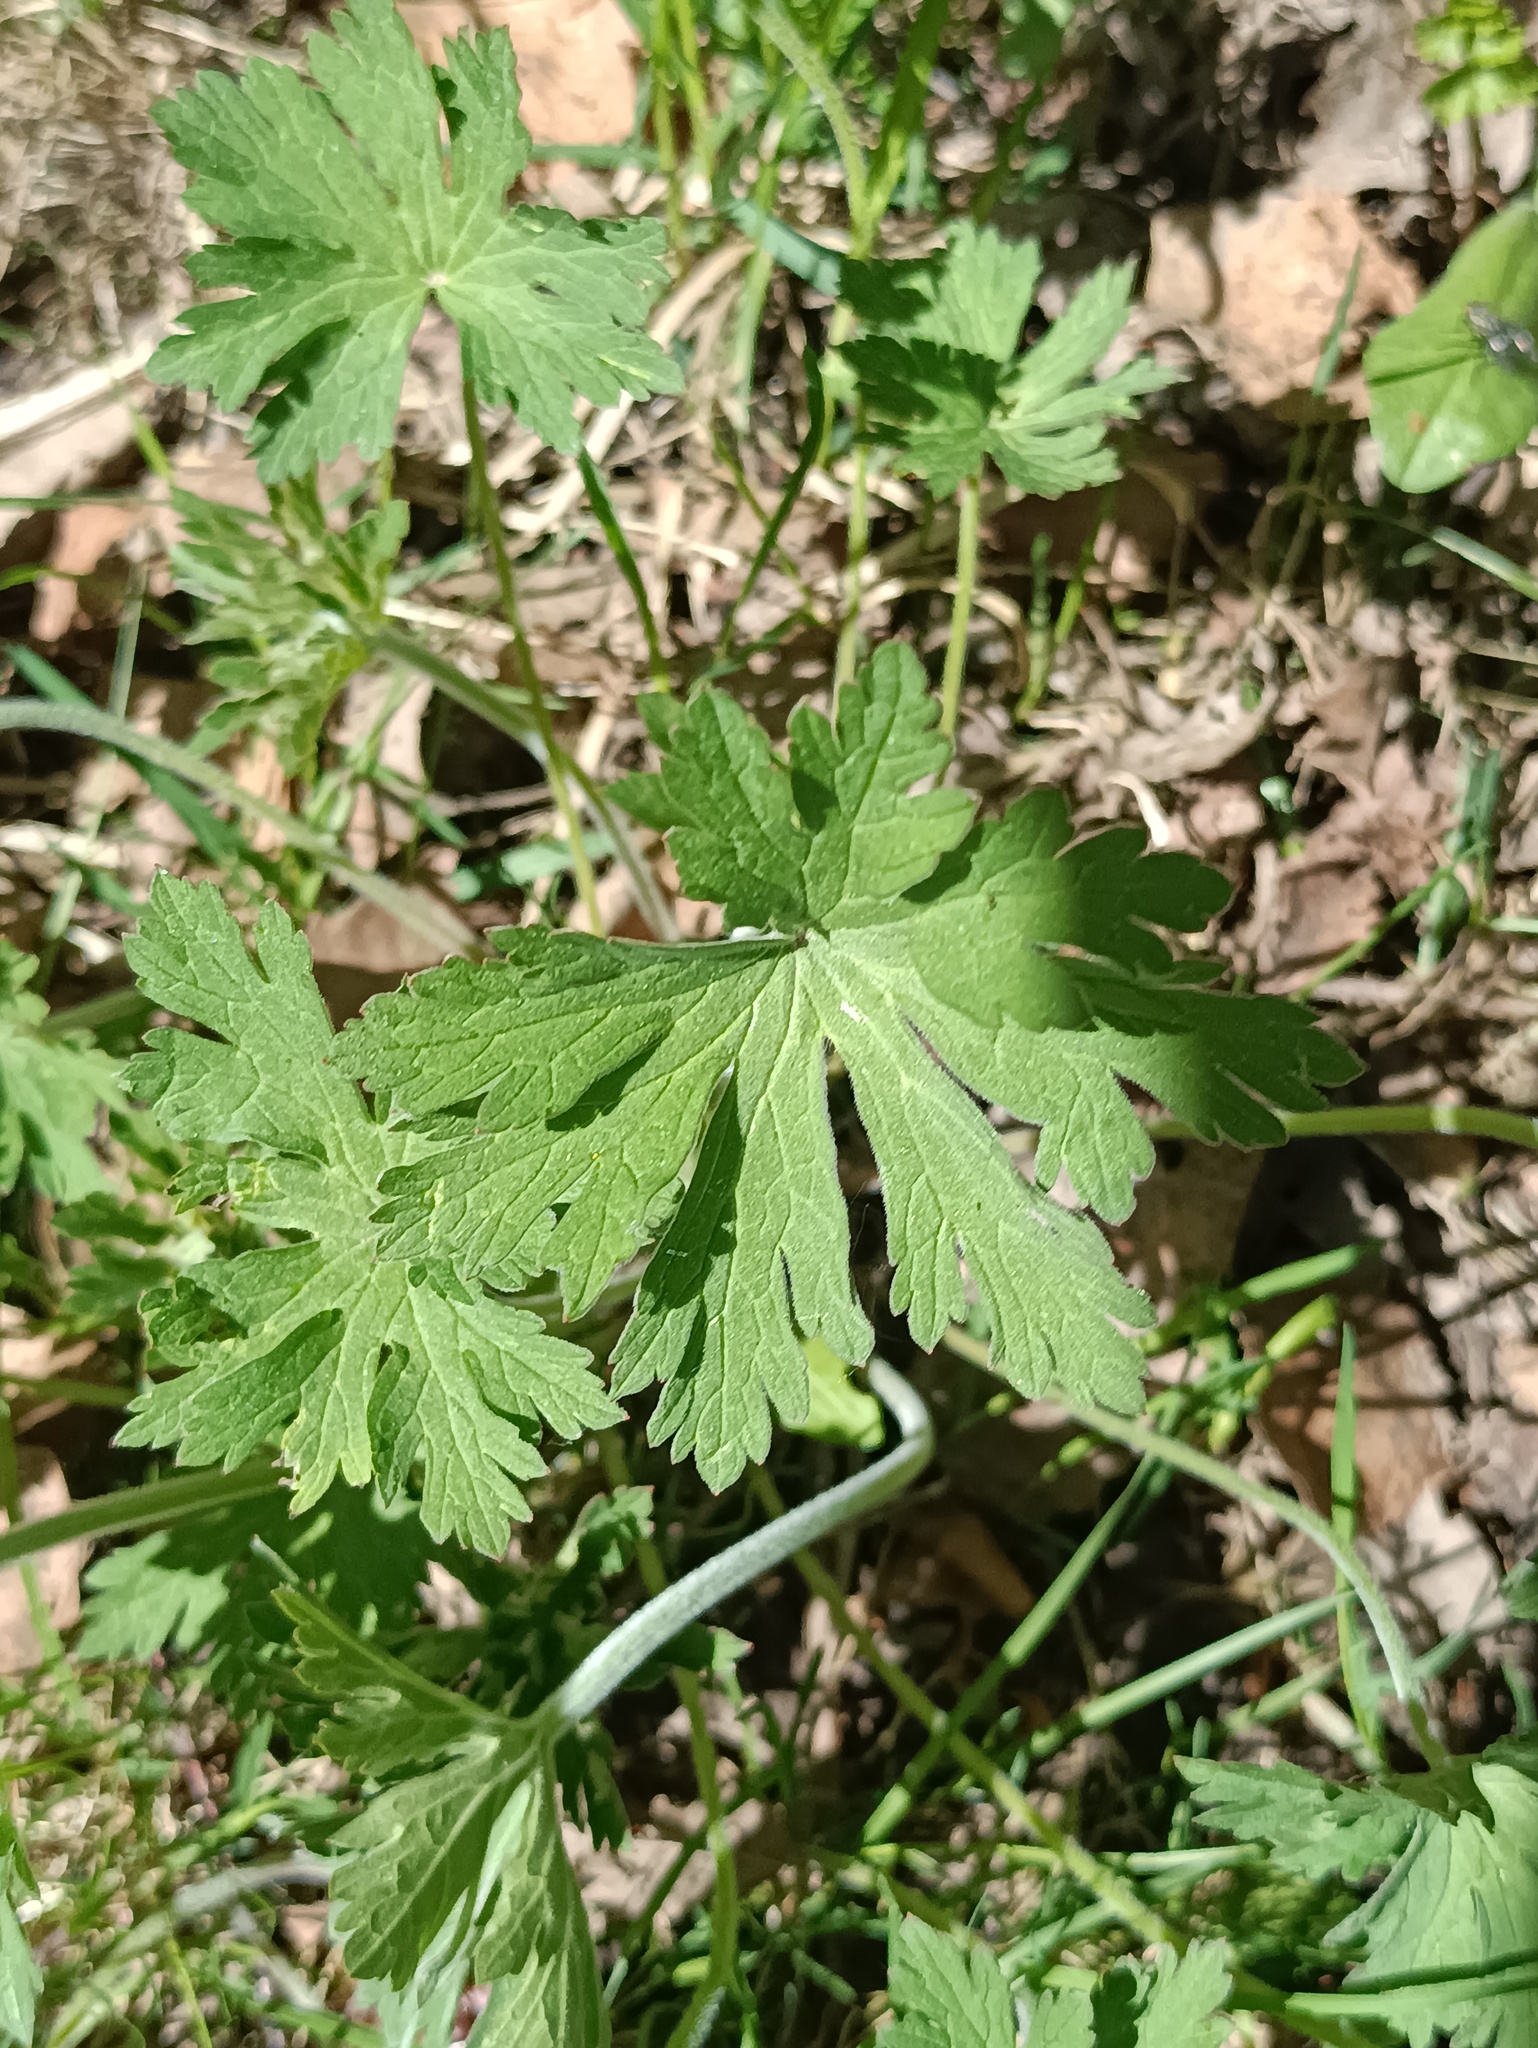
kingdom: Plantae
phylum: Tracheophyta
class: Magnoliopsida
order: Geraniales
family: Geraniaceae
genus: Geranium
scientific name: Geranium pratense
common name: Meadow crane's-bill
